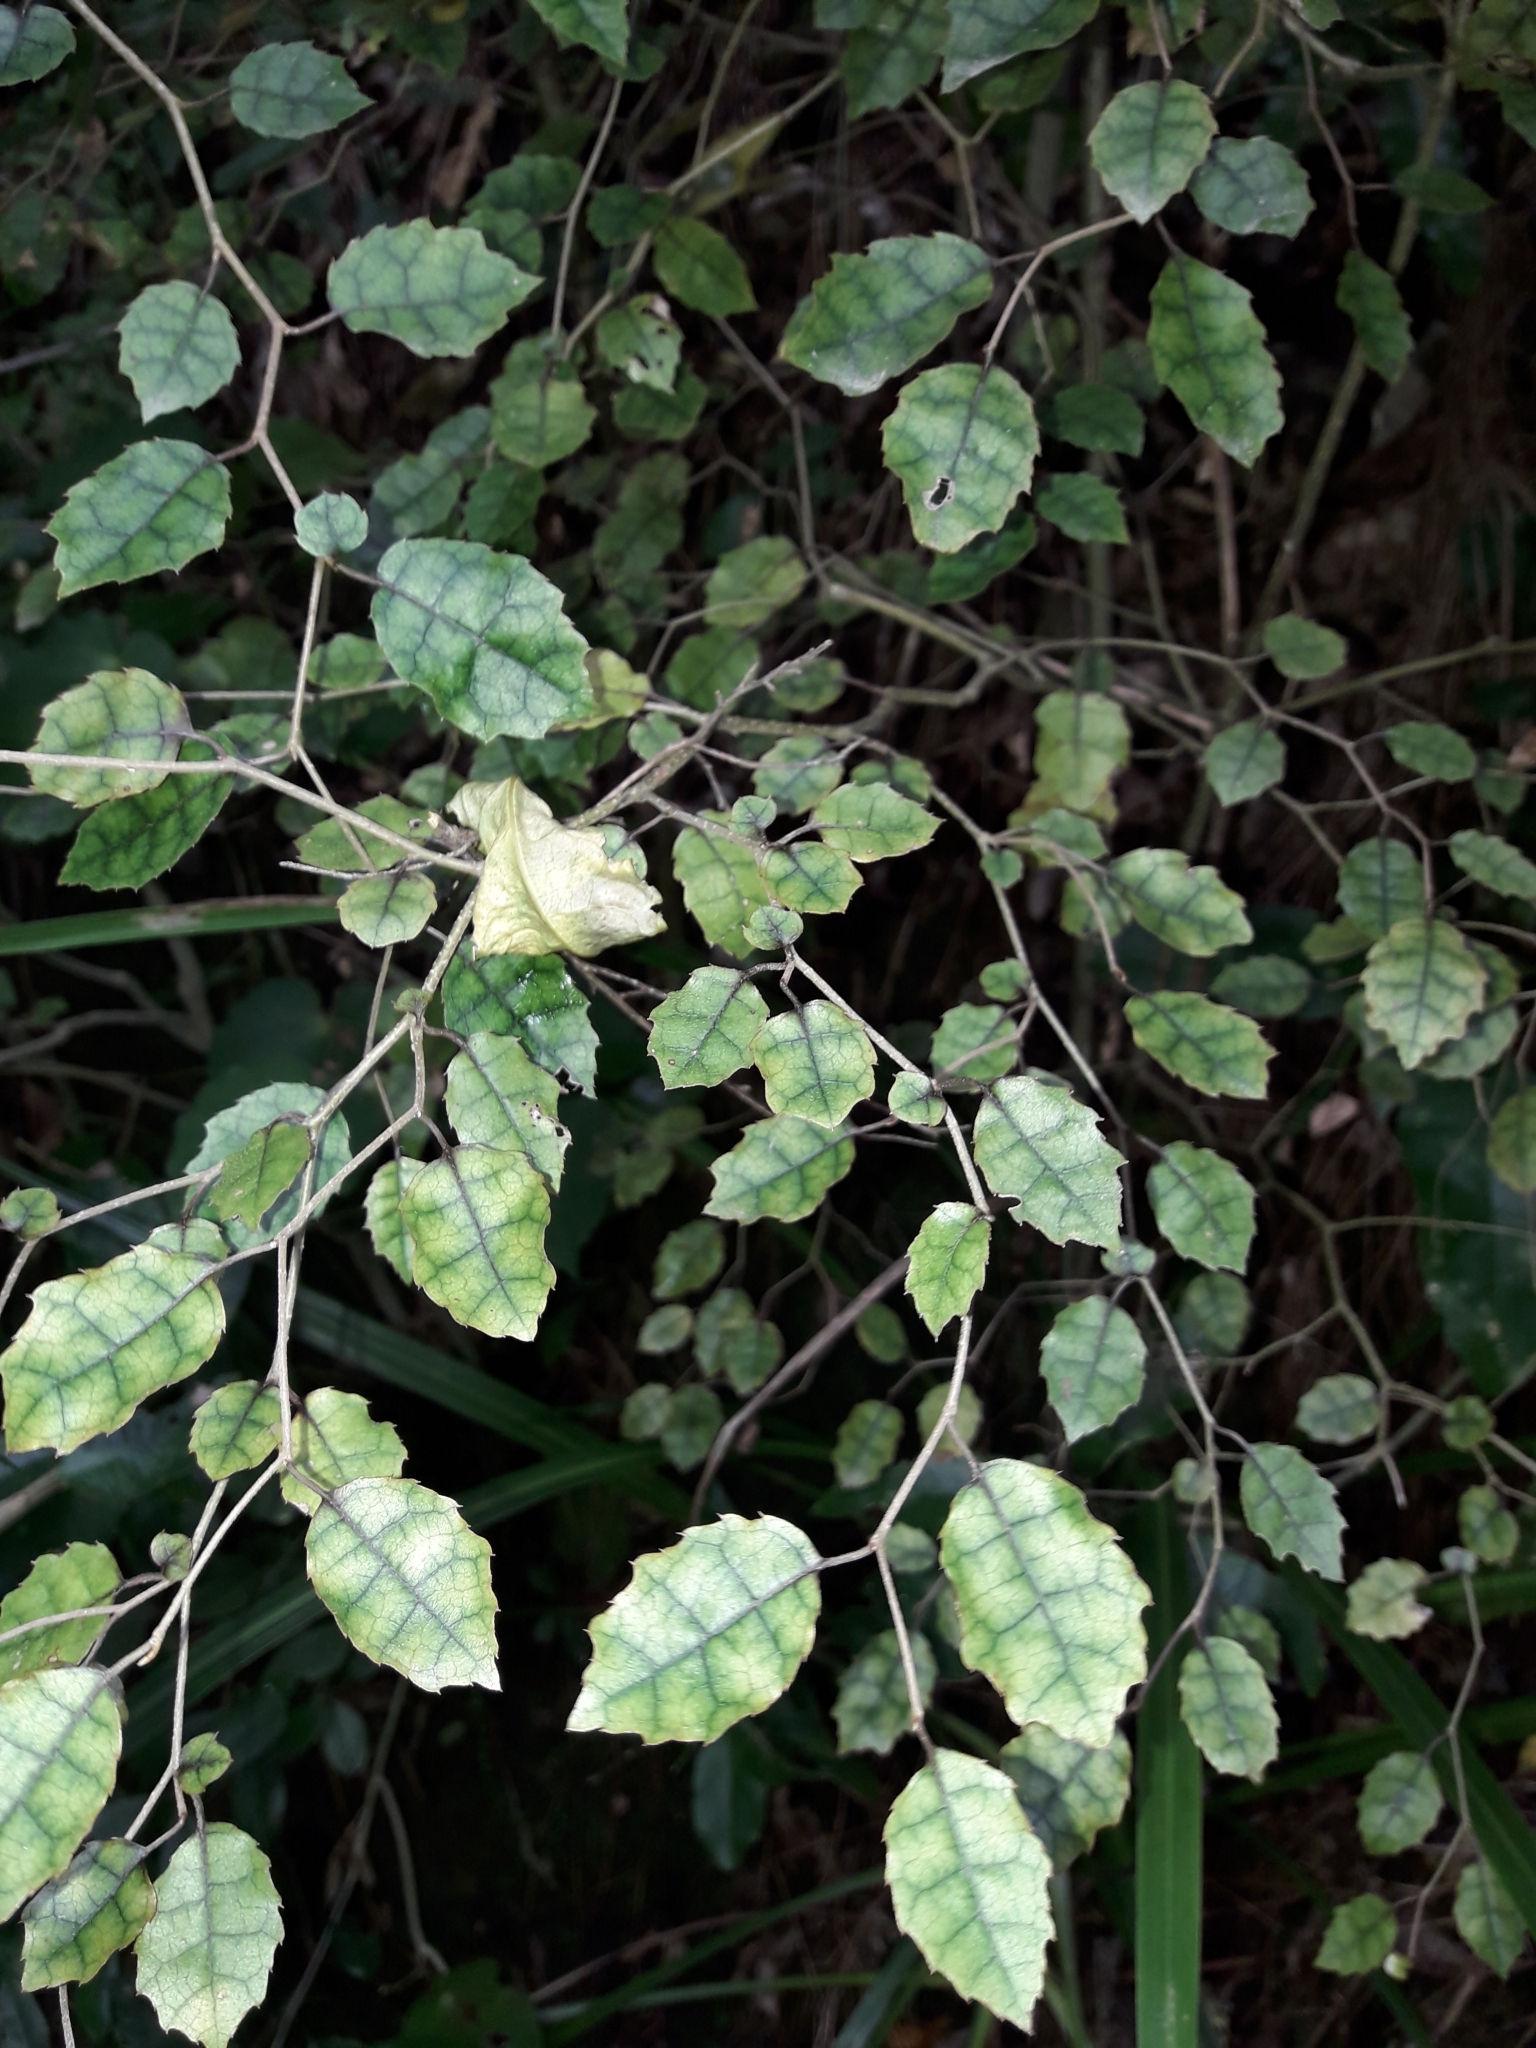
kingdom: Plantae
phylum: Tracheophyta
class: Magnoliopsida
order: Asterales
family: Rousseaceae
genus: Carpodetus
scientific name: Carpodetus serratus
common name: White mapau
